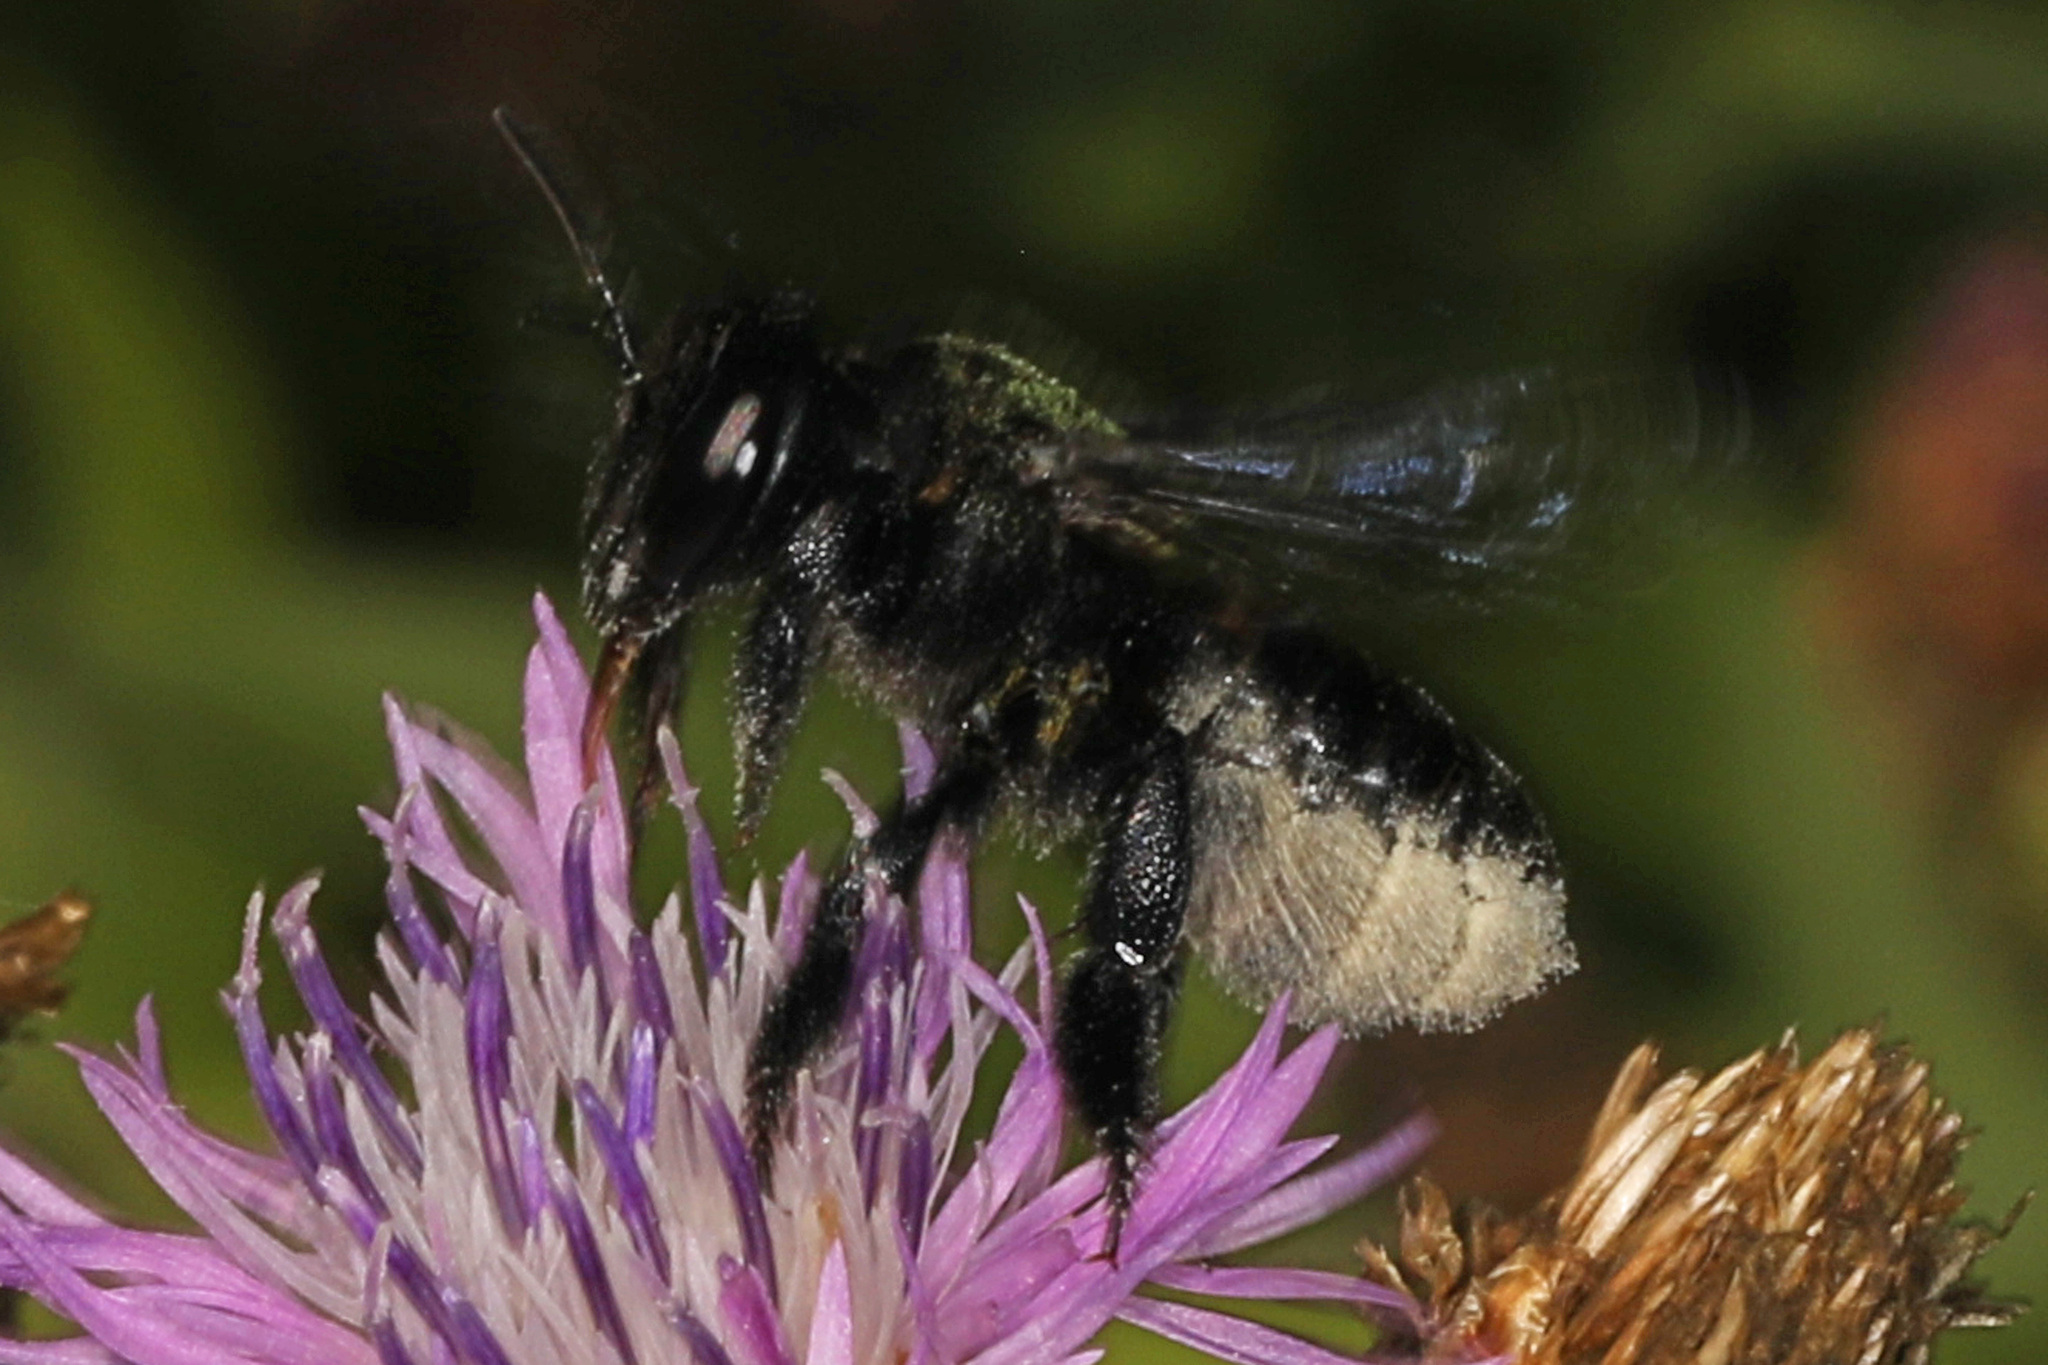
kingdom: Animalia
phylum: Arthropoda
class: Insecta
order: Hymenoptera
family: Megachilidae
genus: Megachile
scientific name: Megachile xylocopoides
